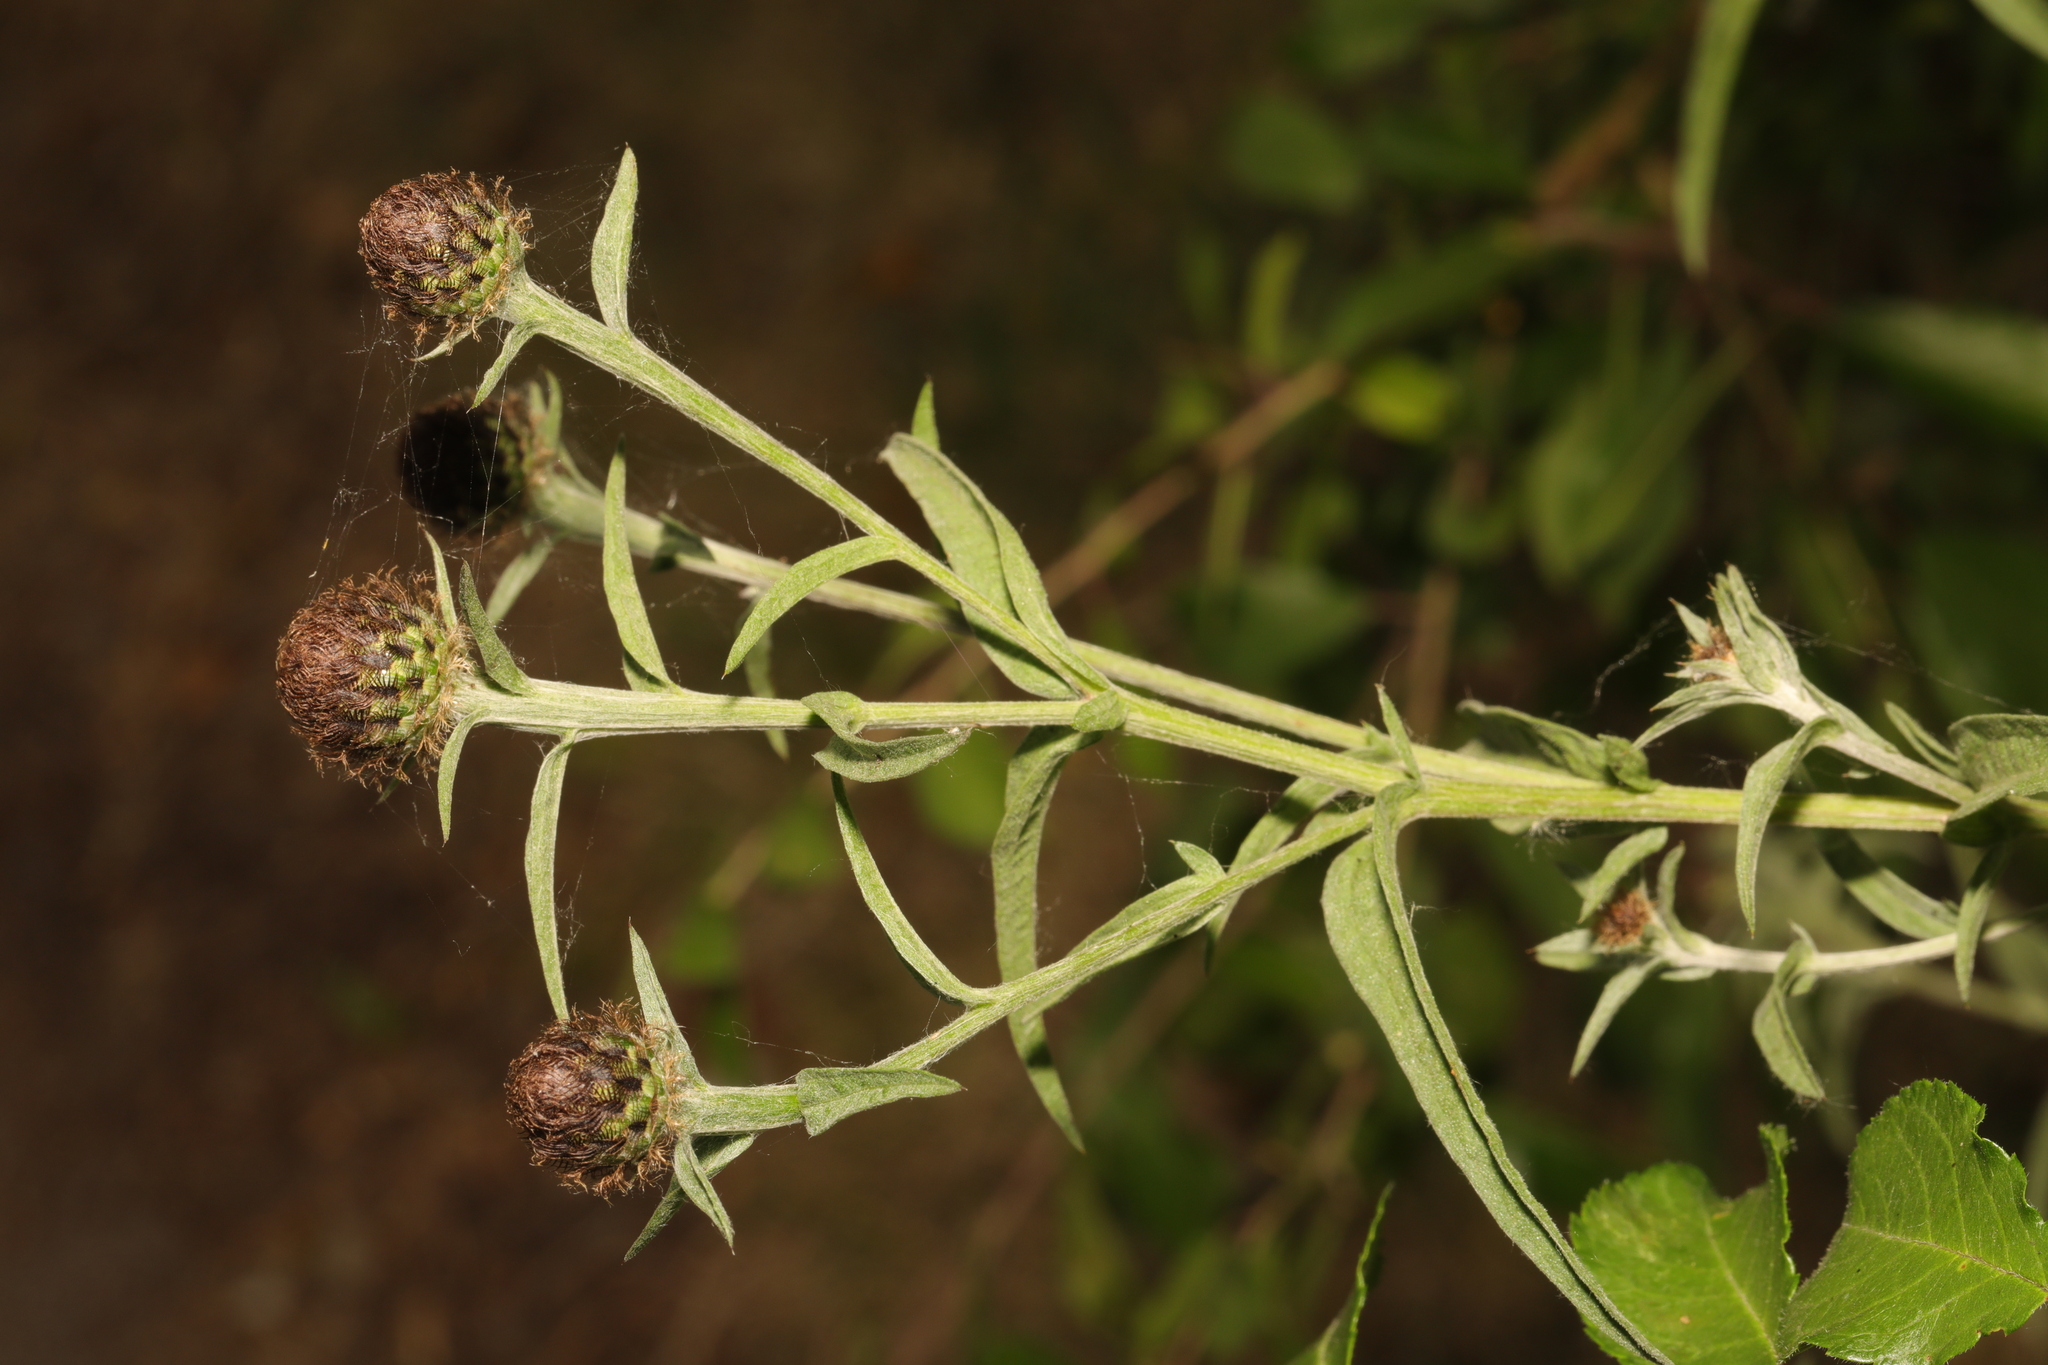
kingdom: Plantae
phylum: Tracheophyta
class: Magnoliopsida
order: Asterales
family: Asteraceae
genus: Centaurea
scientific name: Centaurea nigra
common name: Lesser knapweed
